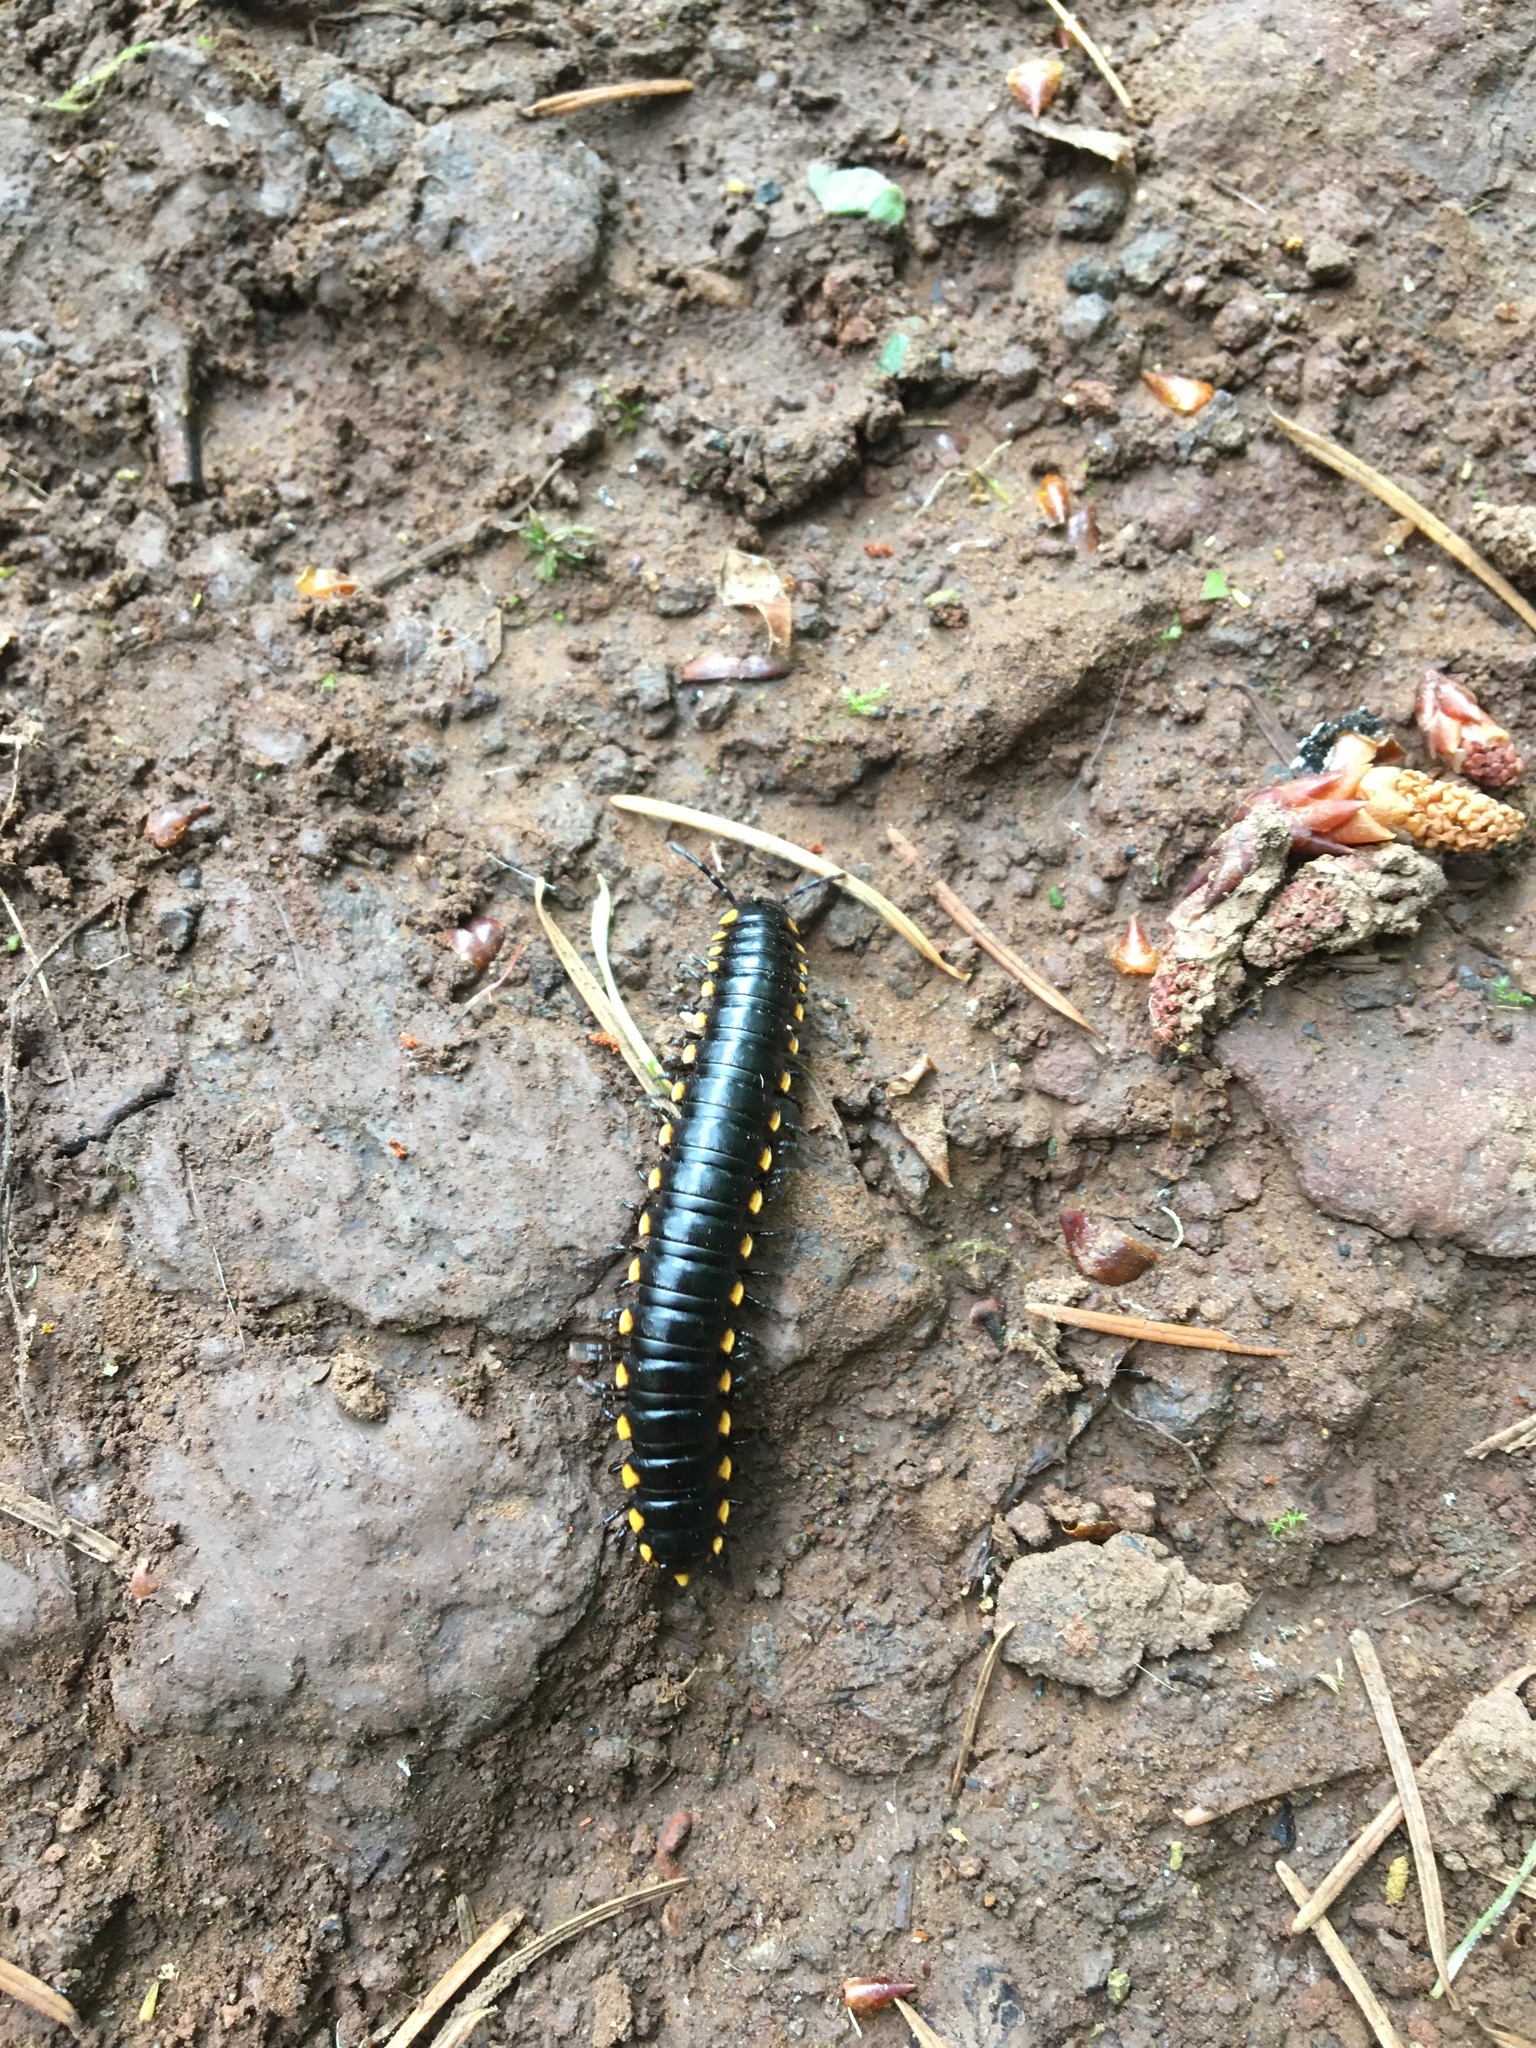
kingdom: Animalia
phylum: Arthropoda
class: Diplopoda
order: Polydesmida
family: Xystodesmidae
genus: Harpaphe
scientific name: Harpaphe haydeniana
